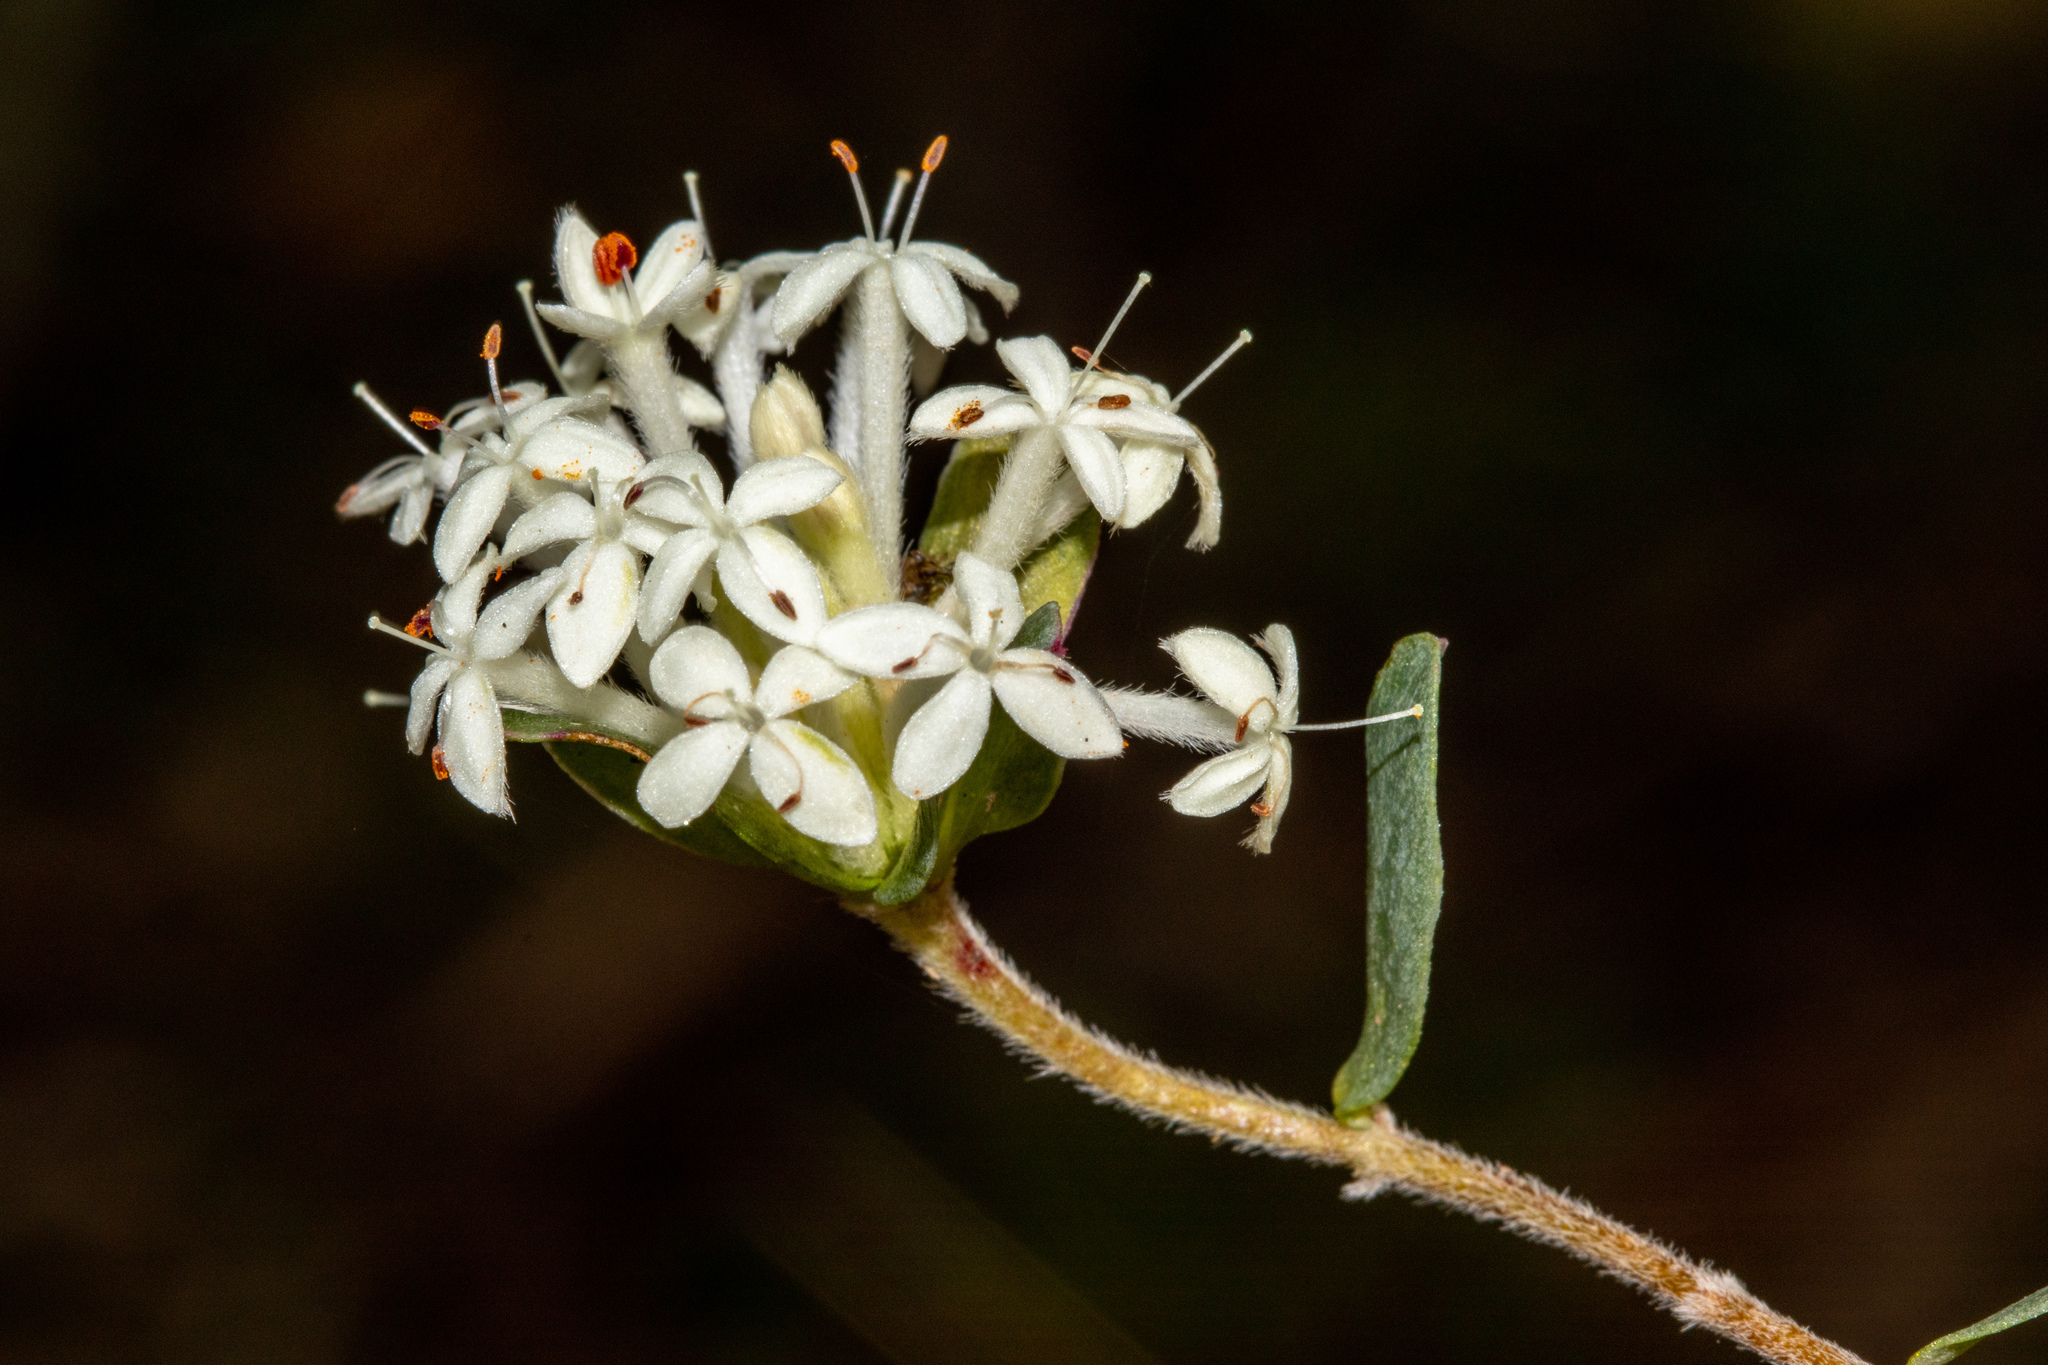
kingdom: Plantae
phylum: Tracheophyta
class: Magnoliopsida
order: Malvales
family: Thymelaeaceae
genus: Pimelea
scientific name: Pimelea humilis
